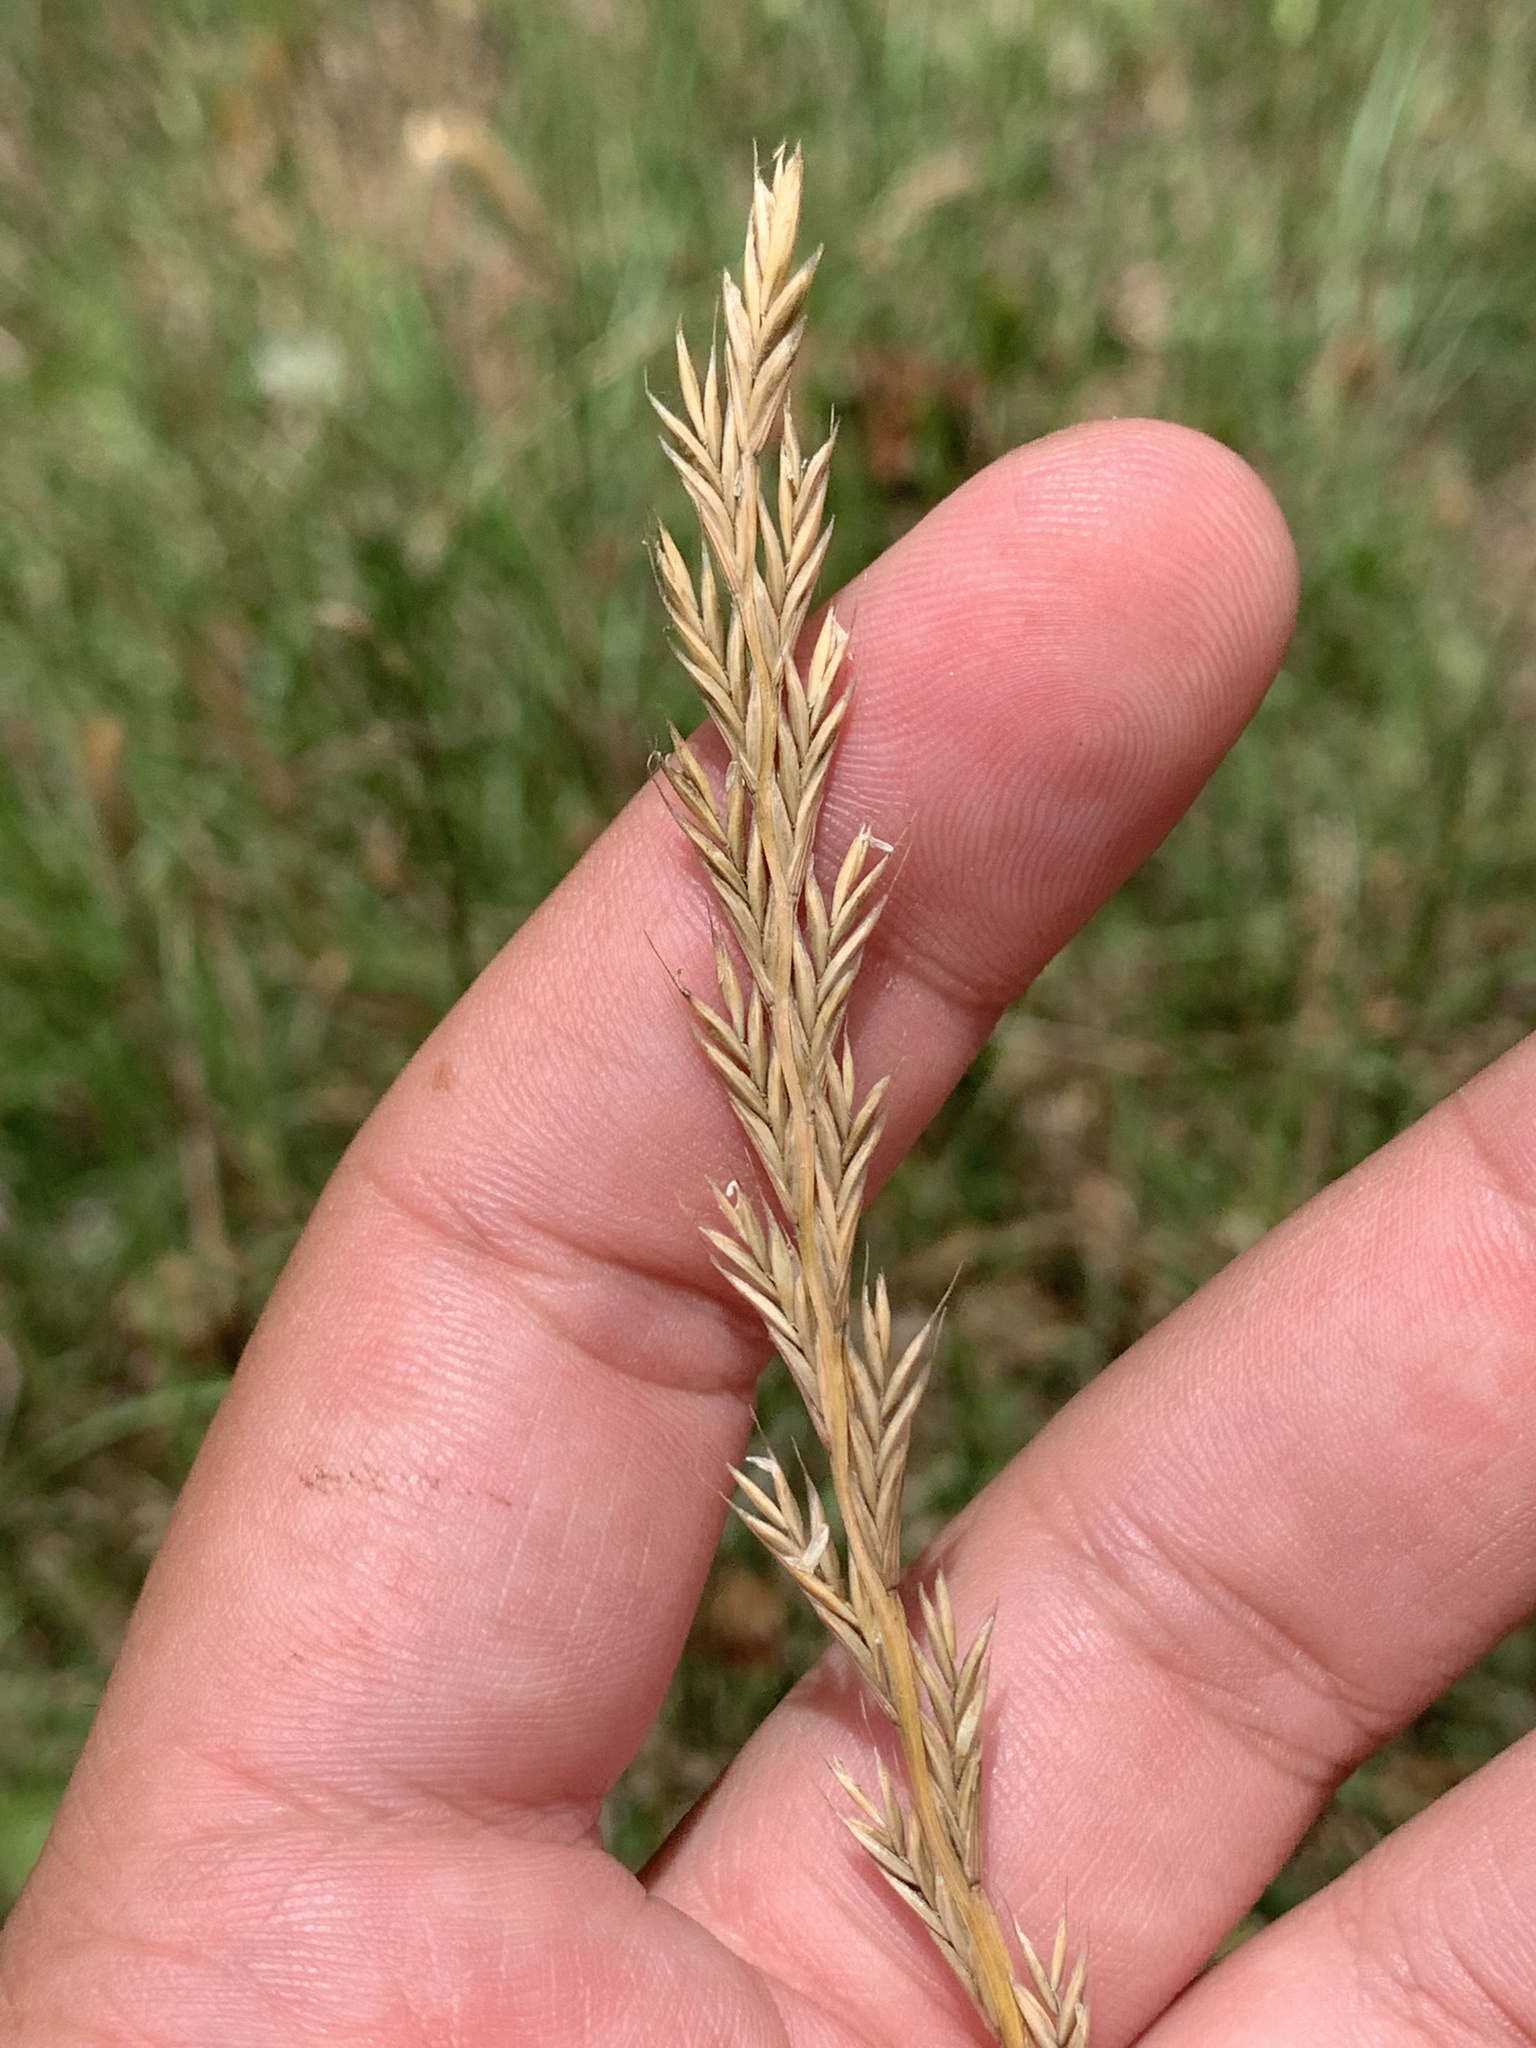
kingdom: Plantae
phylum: Tracheophyta
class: Liliopsida
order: Poales
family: Poaceae
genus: Lolium
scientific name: Lolium perenne
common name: Perennial ryegrass
